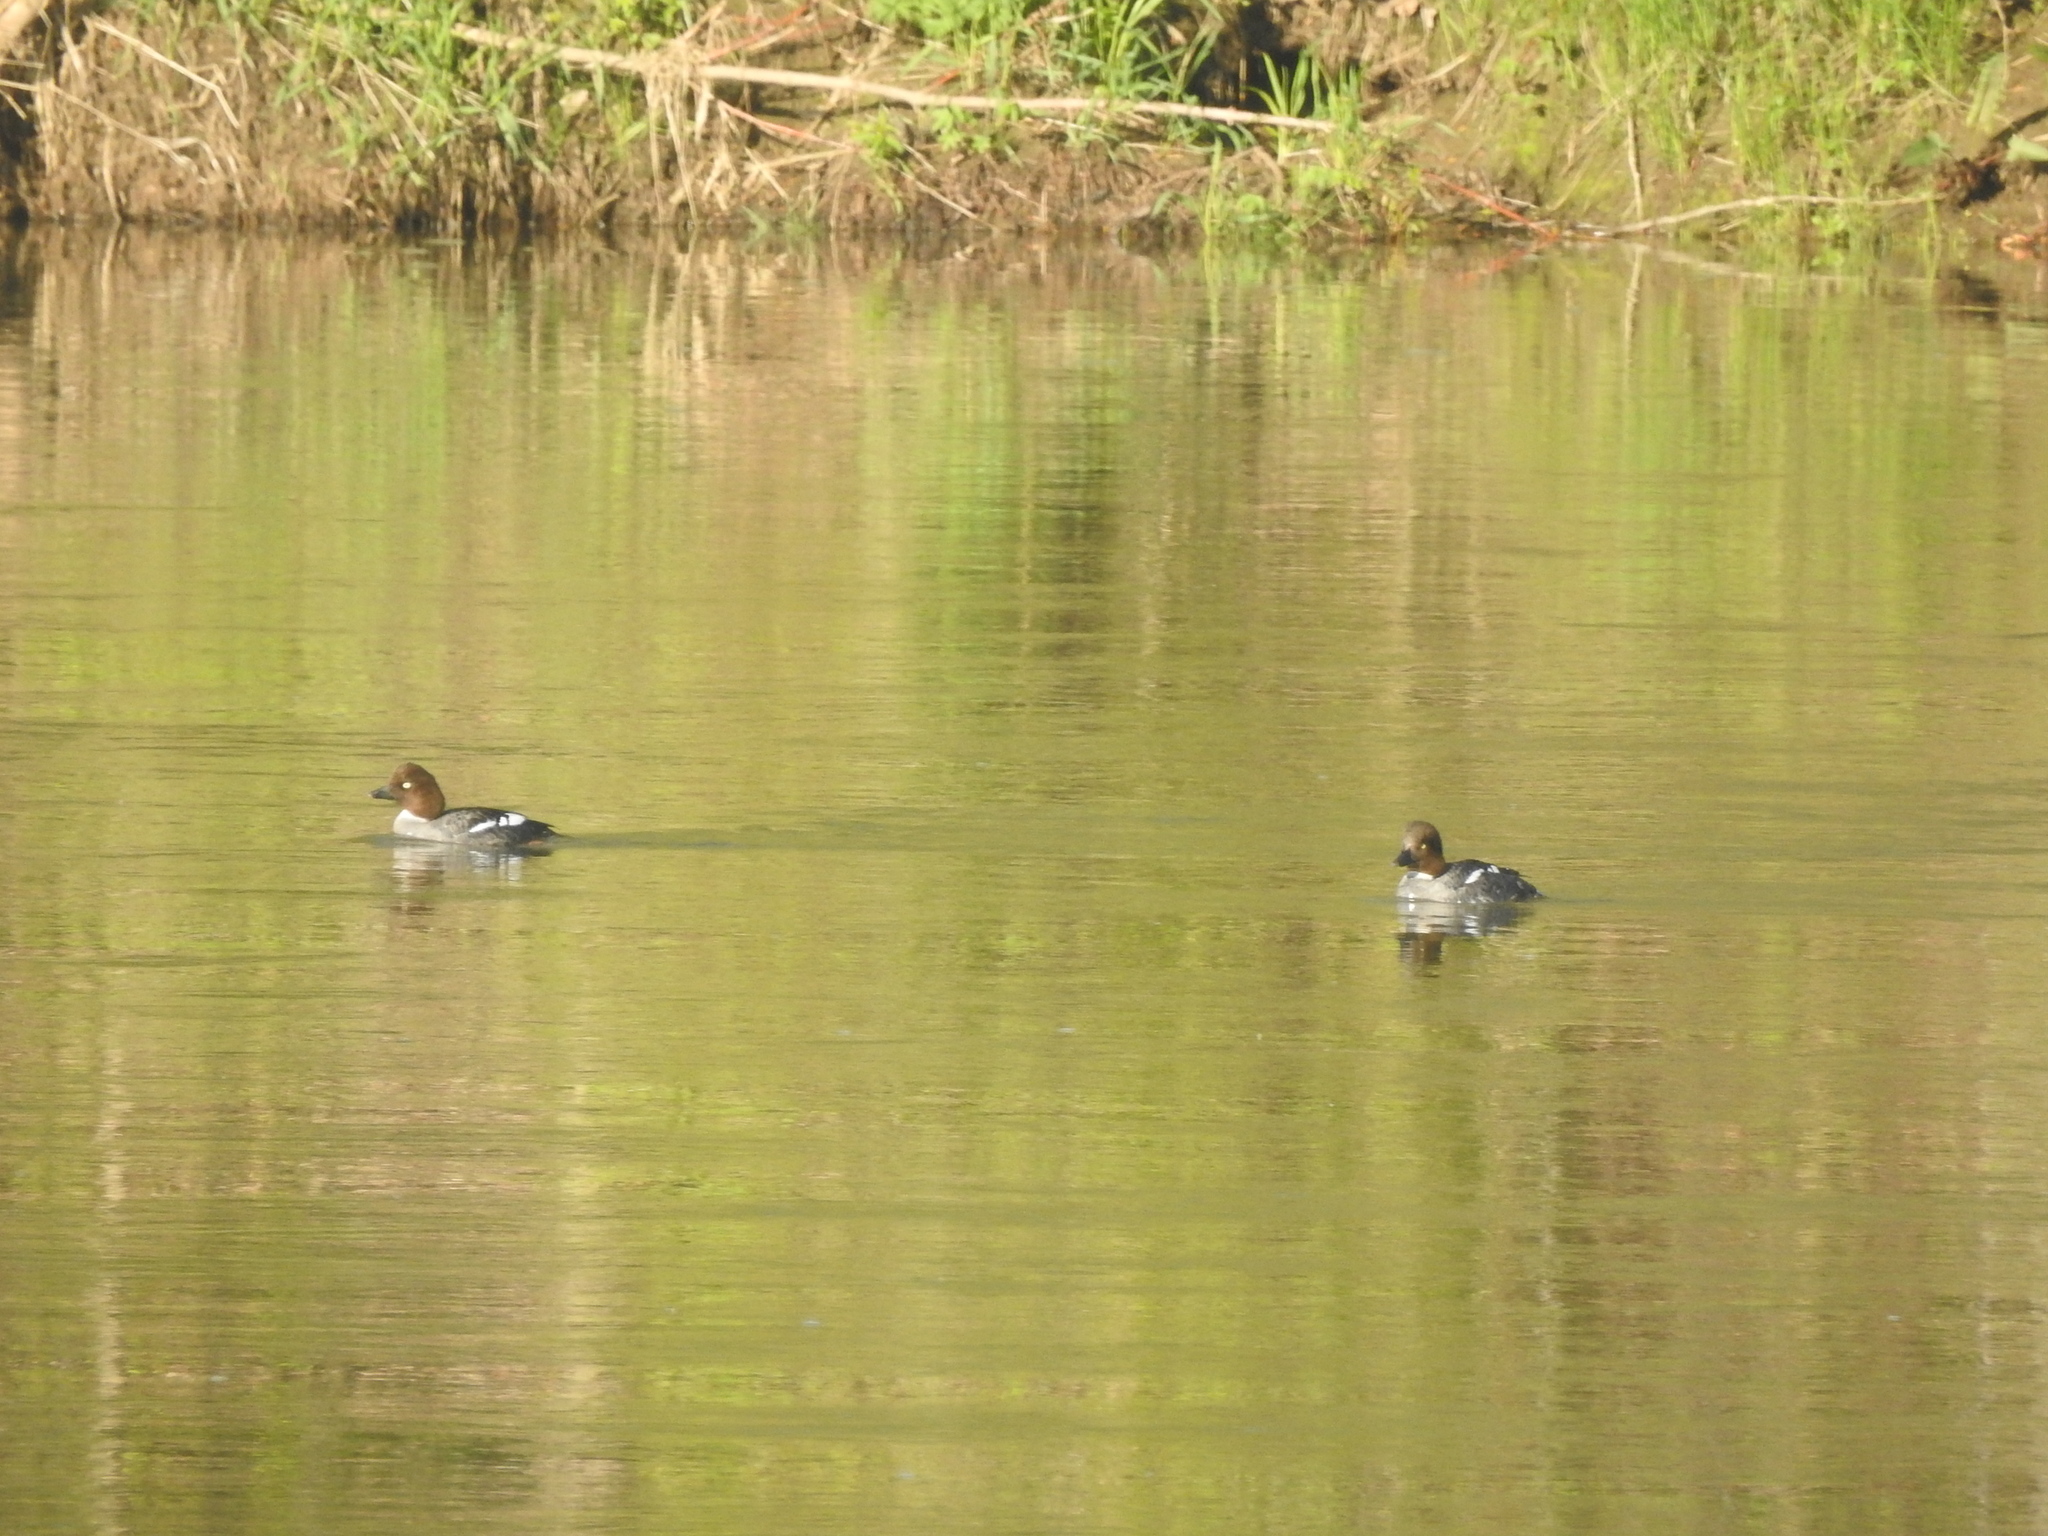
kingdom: Animalia
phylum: Chordata
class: Aves
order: Anseriformes
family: Anatidae
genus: Bucephala
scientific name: Bucephala clangula
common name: Common goldeneye
